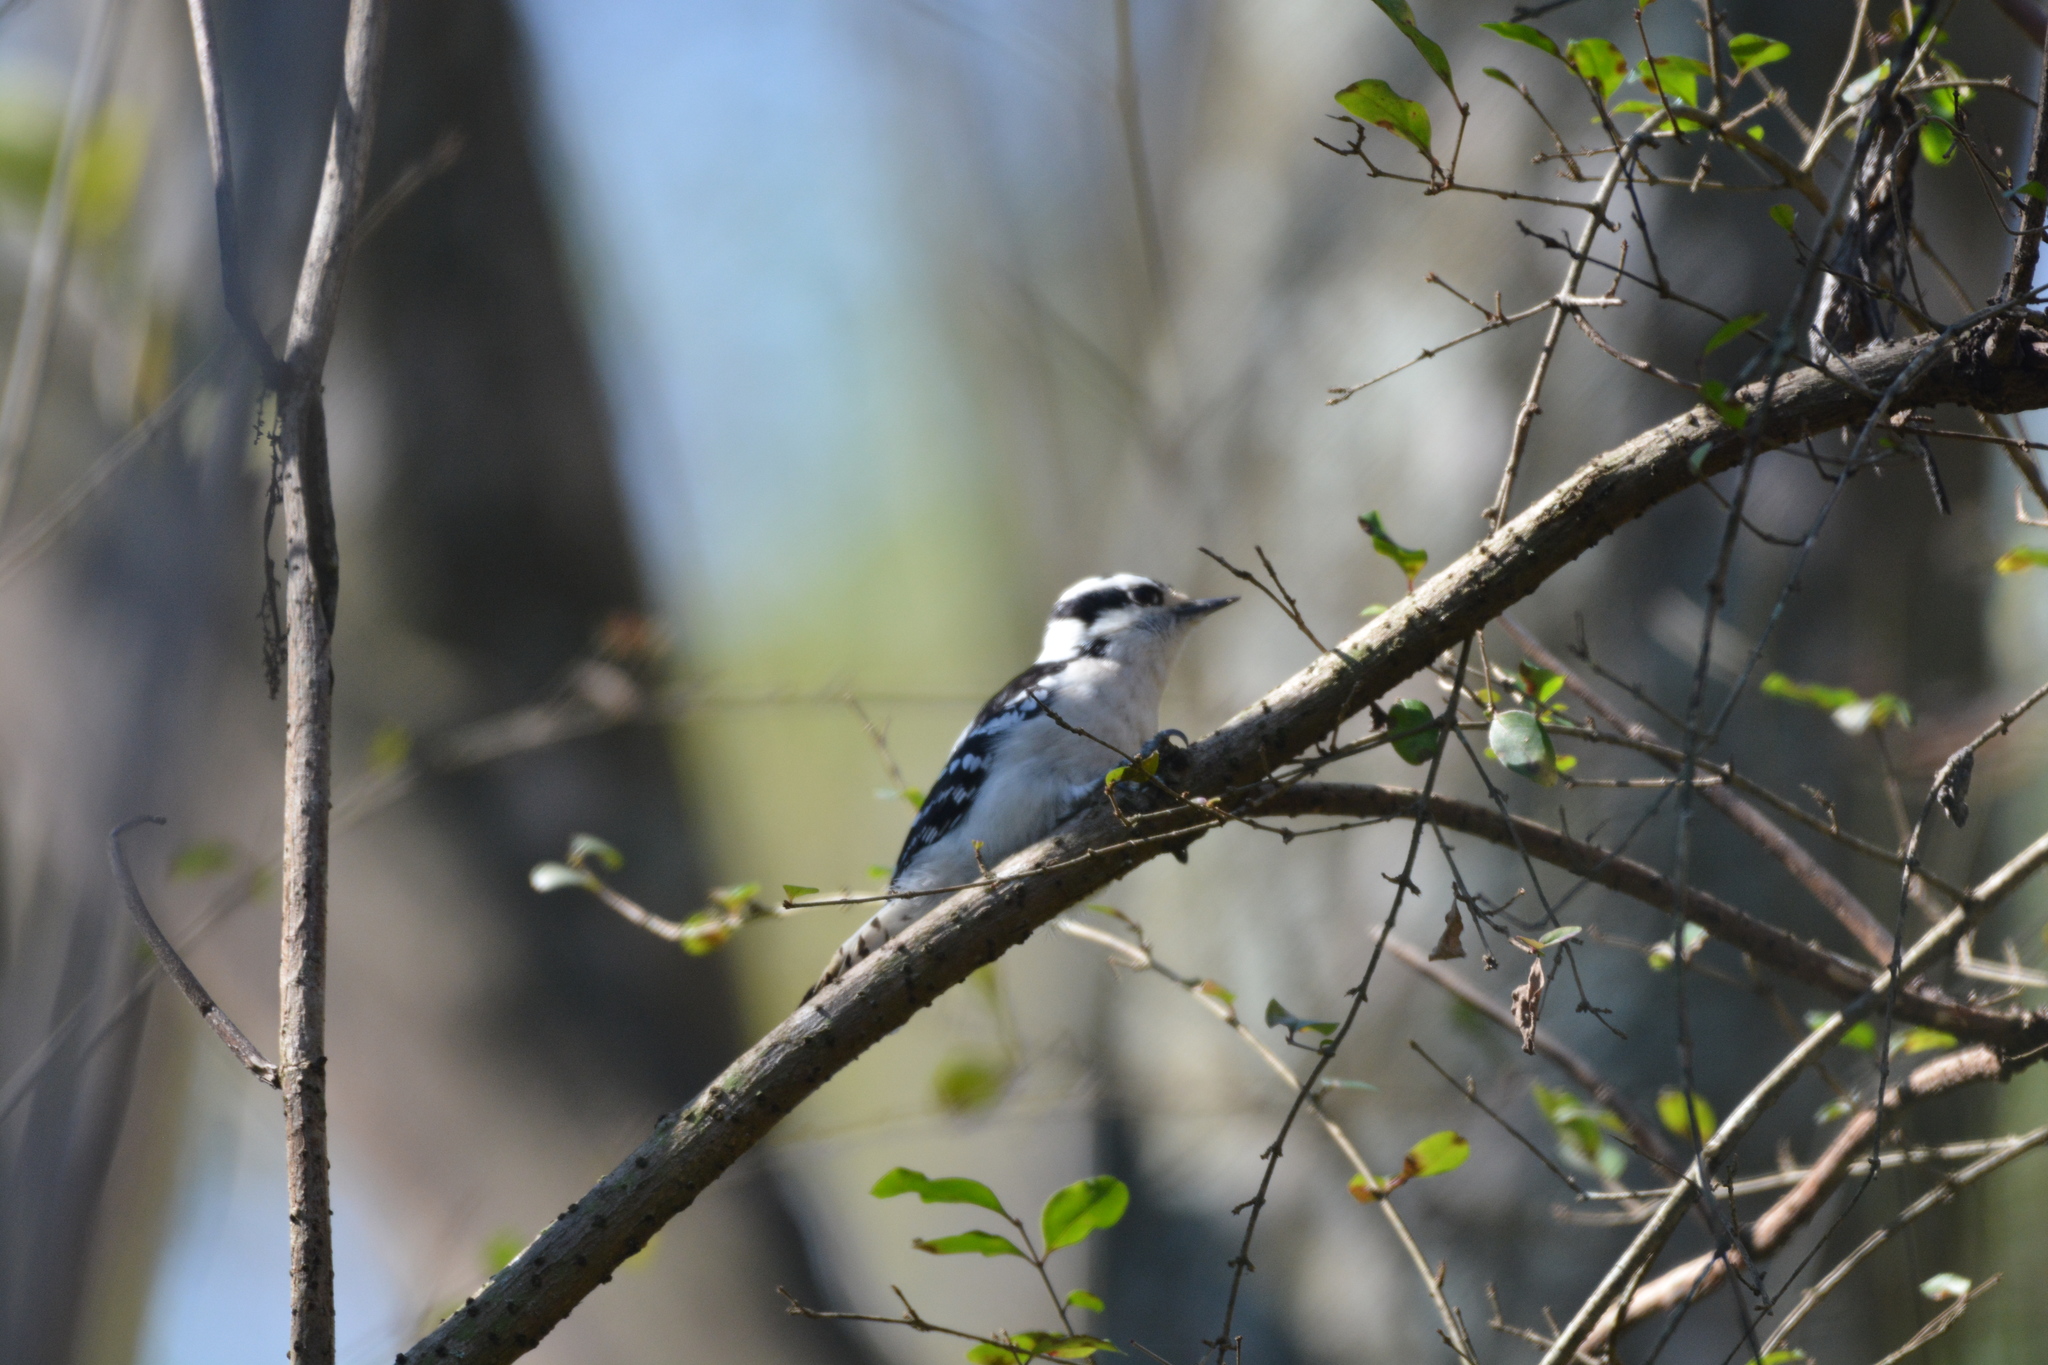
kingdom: Animalia
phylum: Chordata
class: Aves
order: Piciformes
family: Picidae
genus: Dryobates
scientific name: Dryobates pubescens
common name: Downy woodpecker
